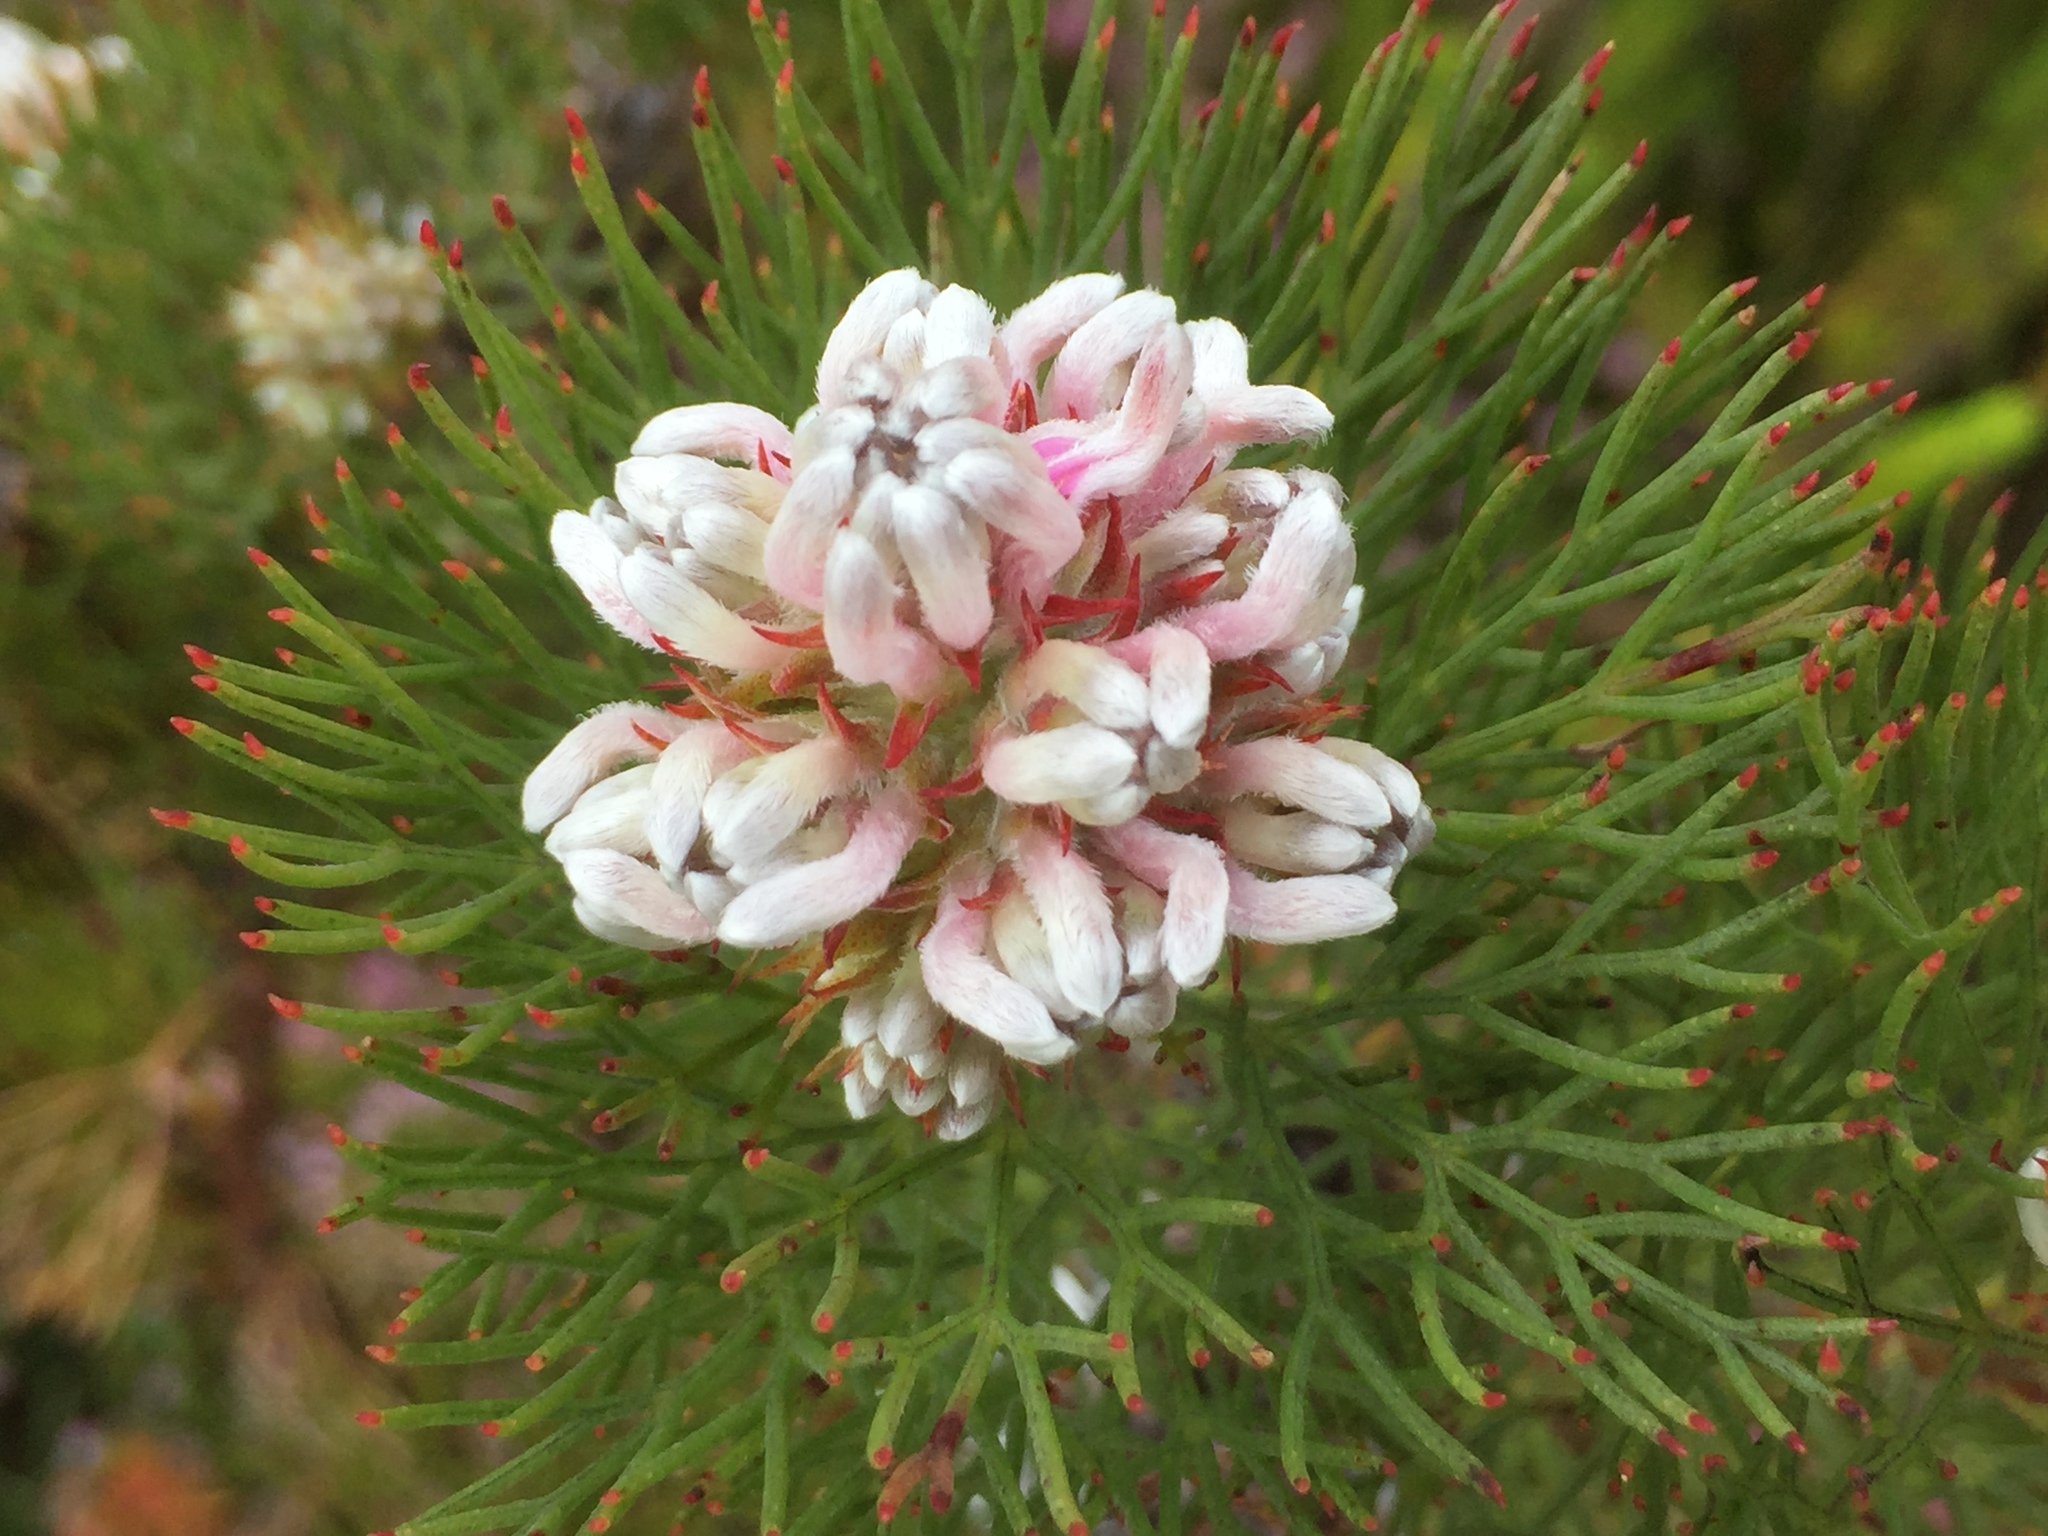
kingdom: Plantae
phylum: Tracheophyta
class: Magnoliopsida
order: Proteales
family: Proteaceae
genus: Serruria
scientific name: Serruria ascendens
